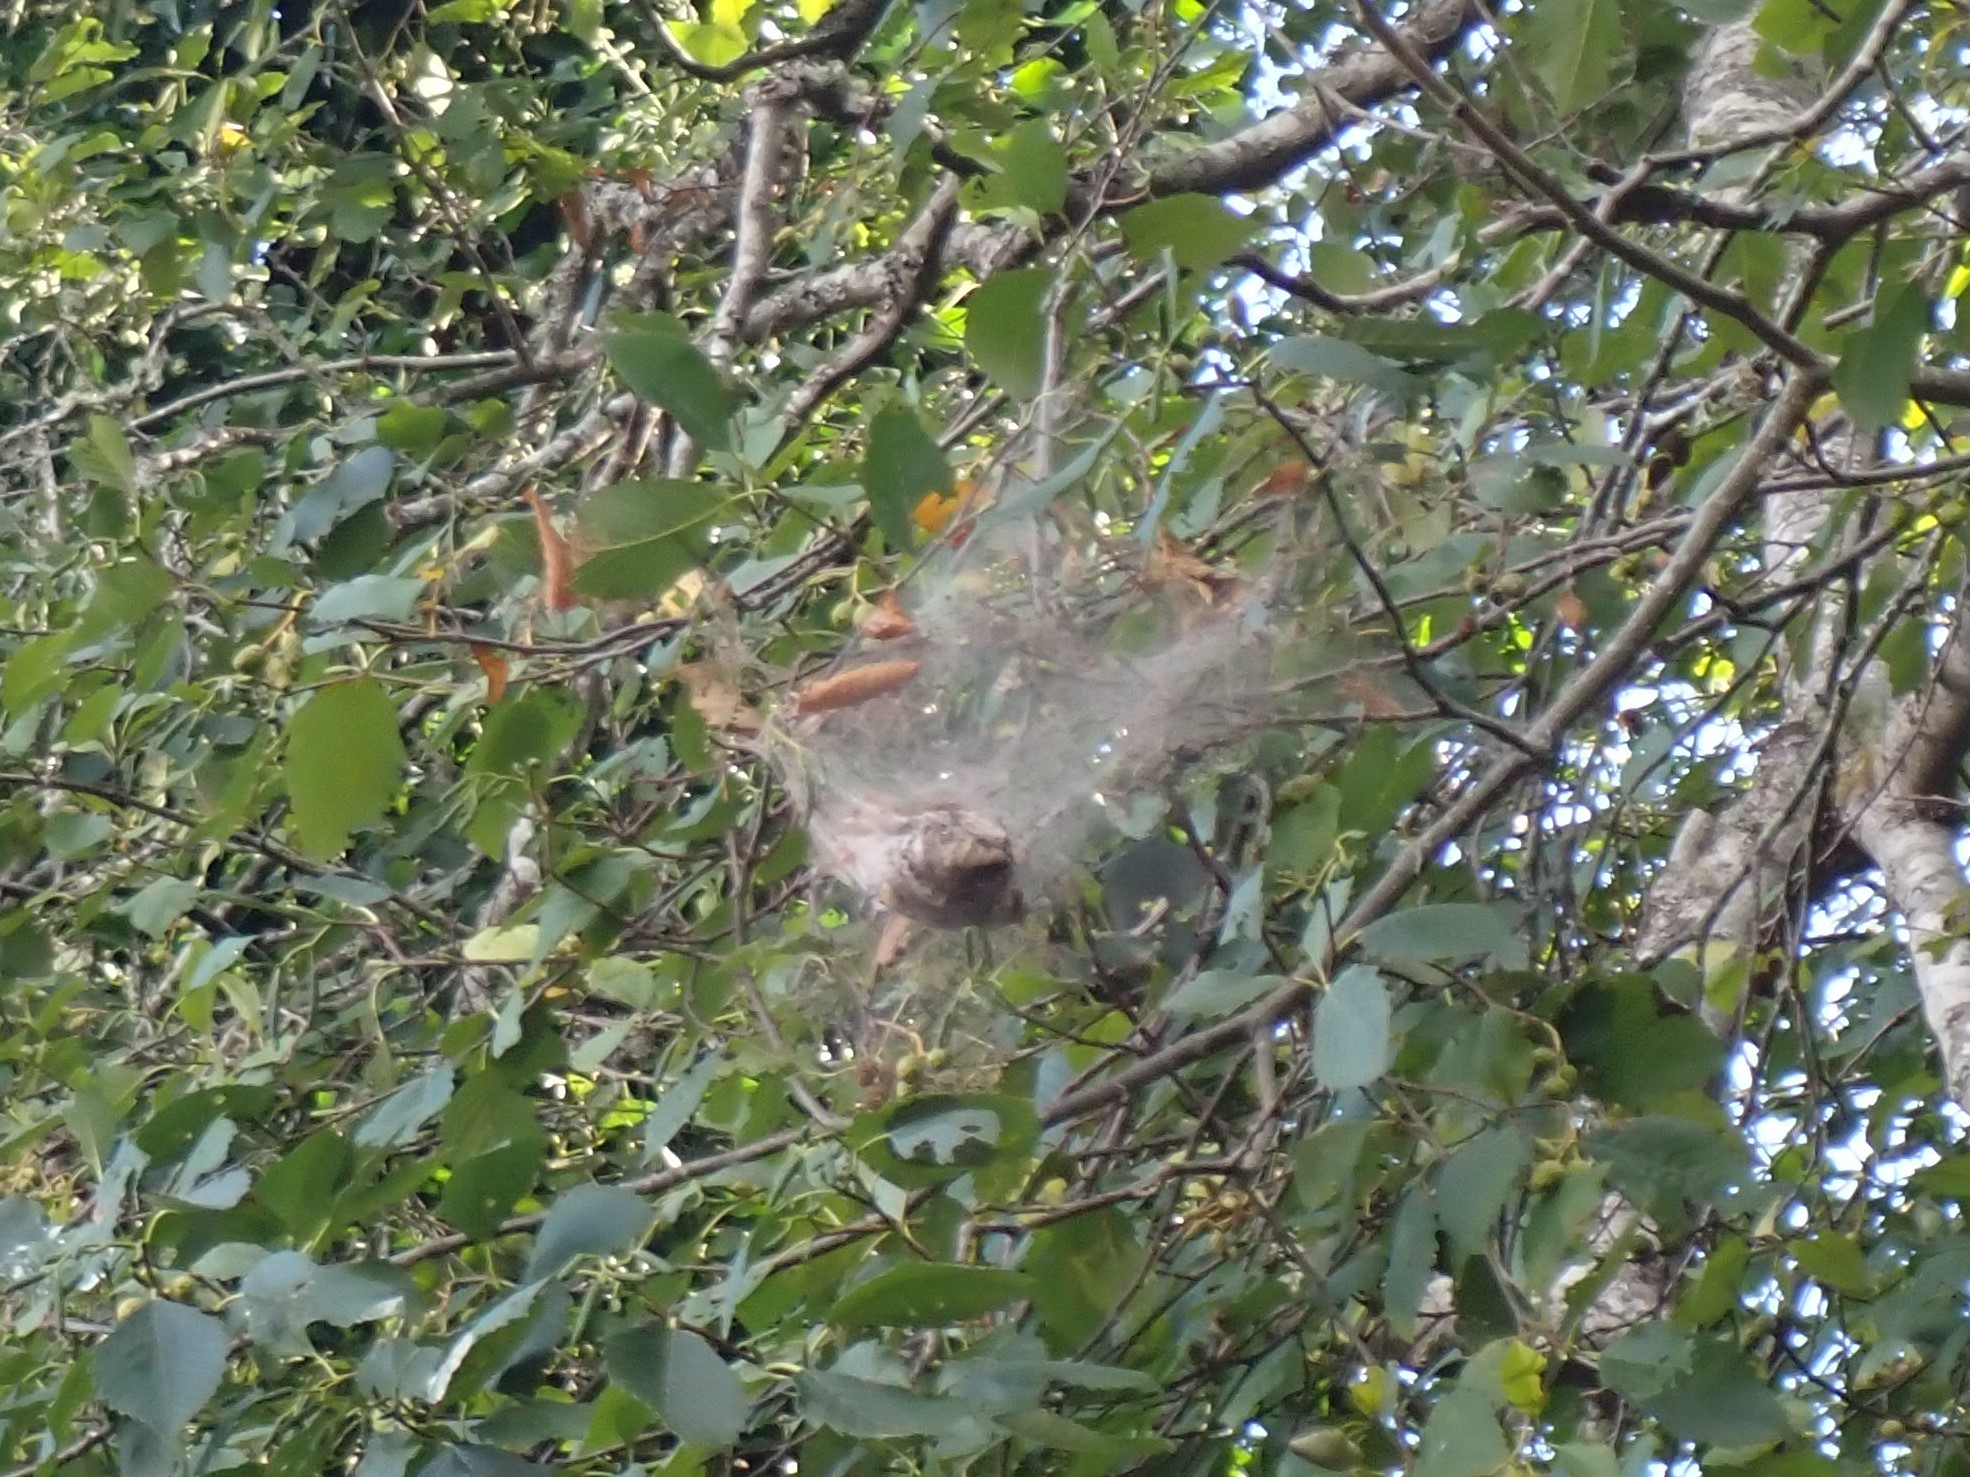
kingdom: Animalia
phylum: Arthropoda
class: Insecta
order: Lepidoptera
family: Erebidae
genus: Hyphantria
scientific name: Hyphantria cunea
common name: American white moth
